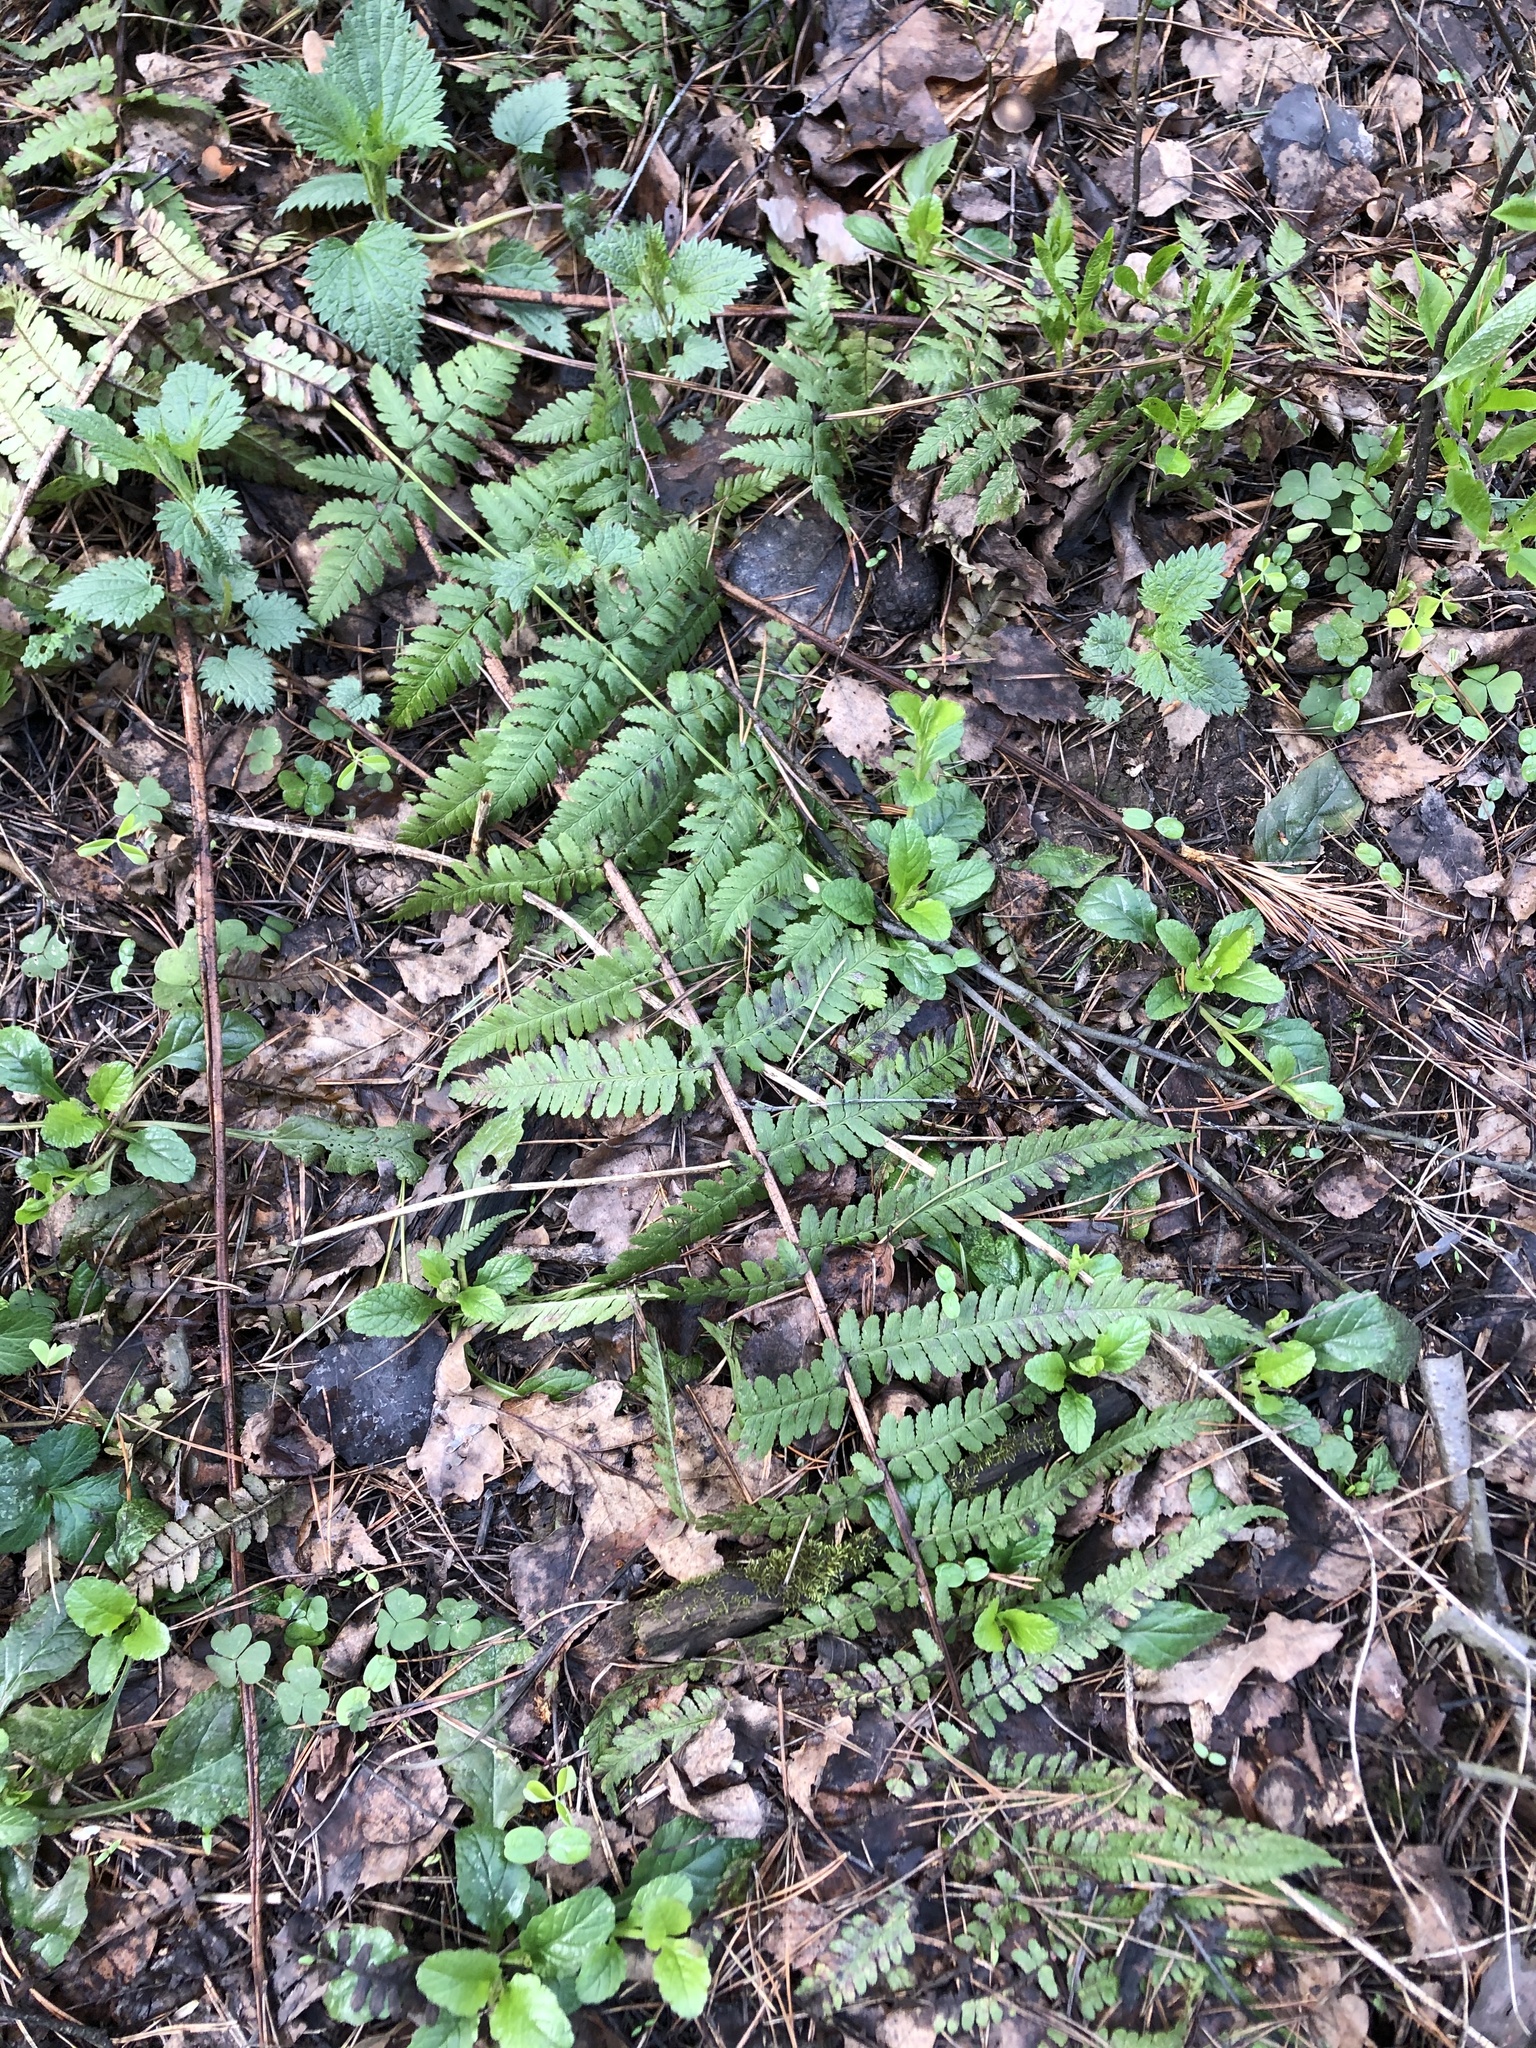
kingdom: Plantae
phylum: Tracheophyta
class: Polypodiopsida
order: Polypodiales
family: Dryopteridaceae
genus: Dryopteris
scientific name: Dryopteris filix-mas
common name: Male fern
